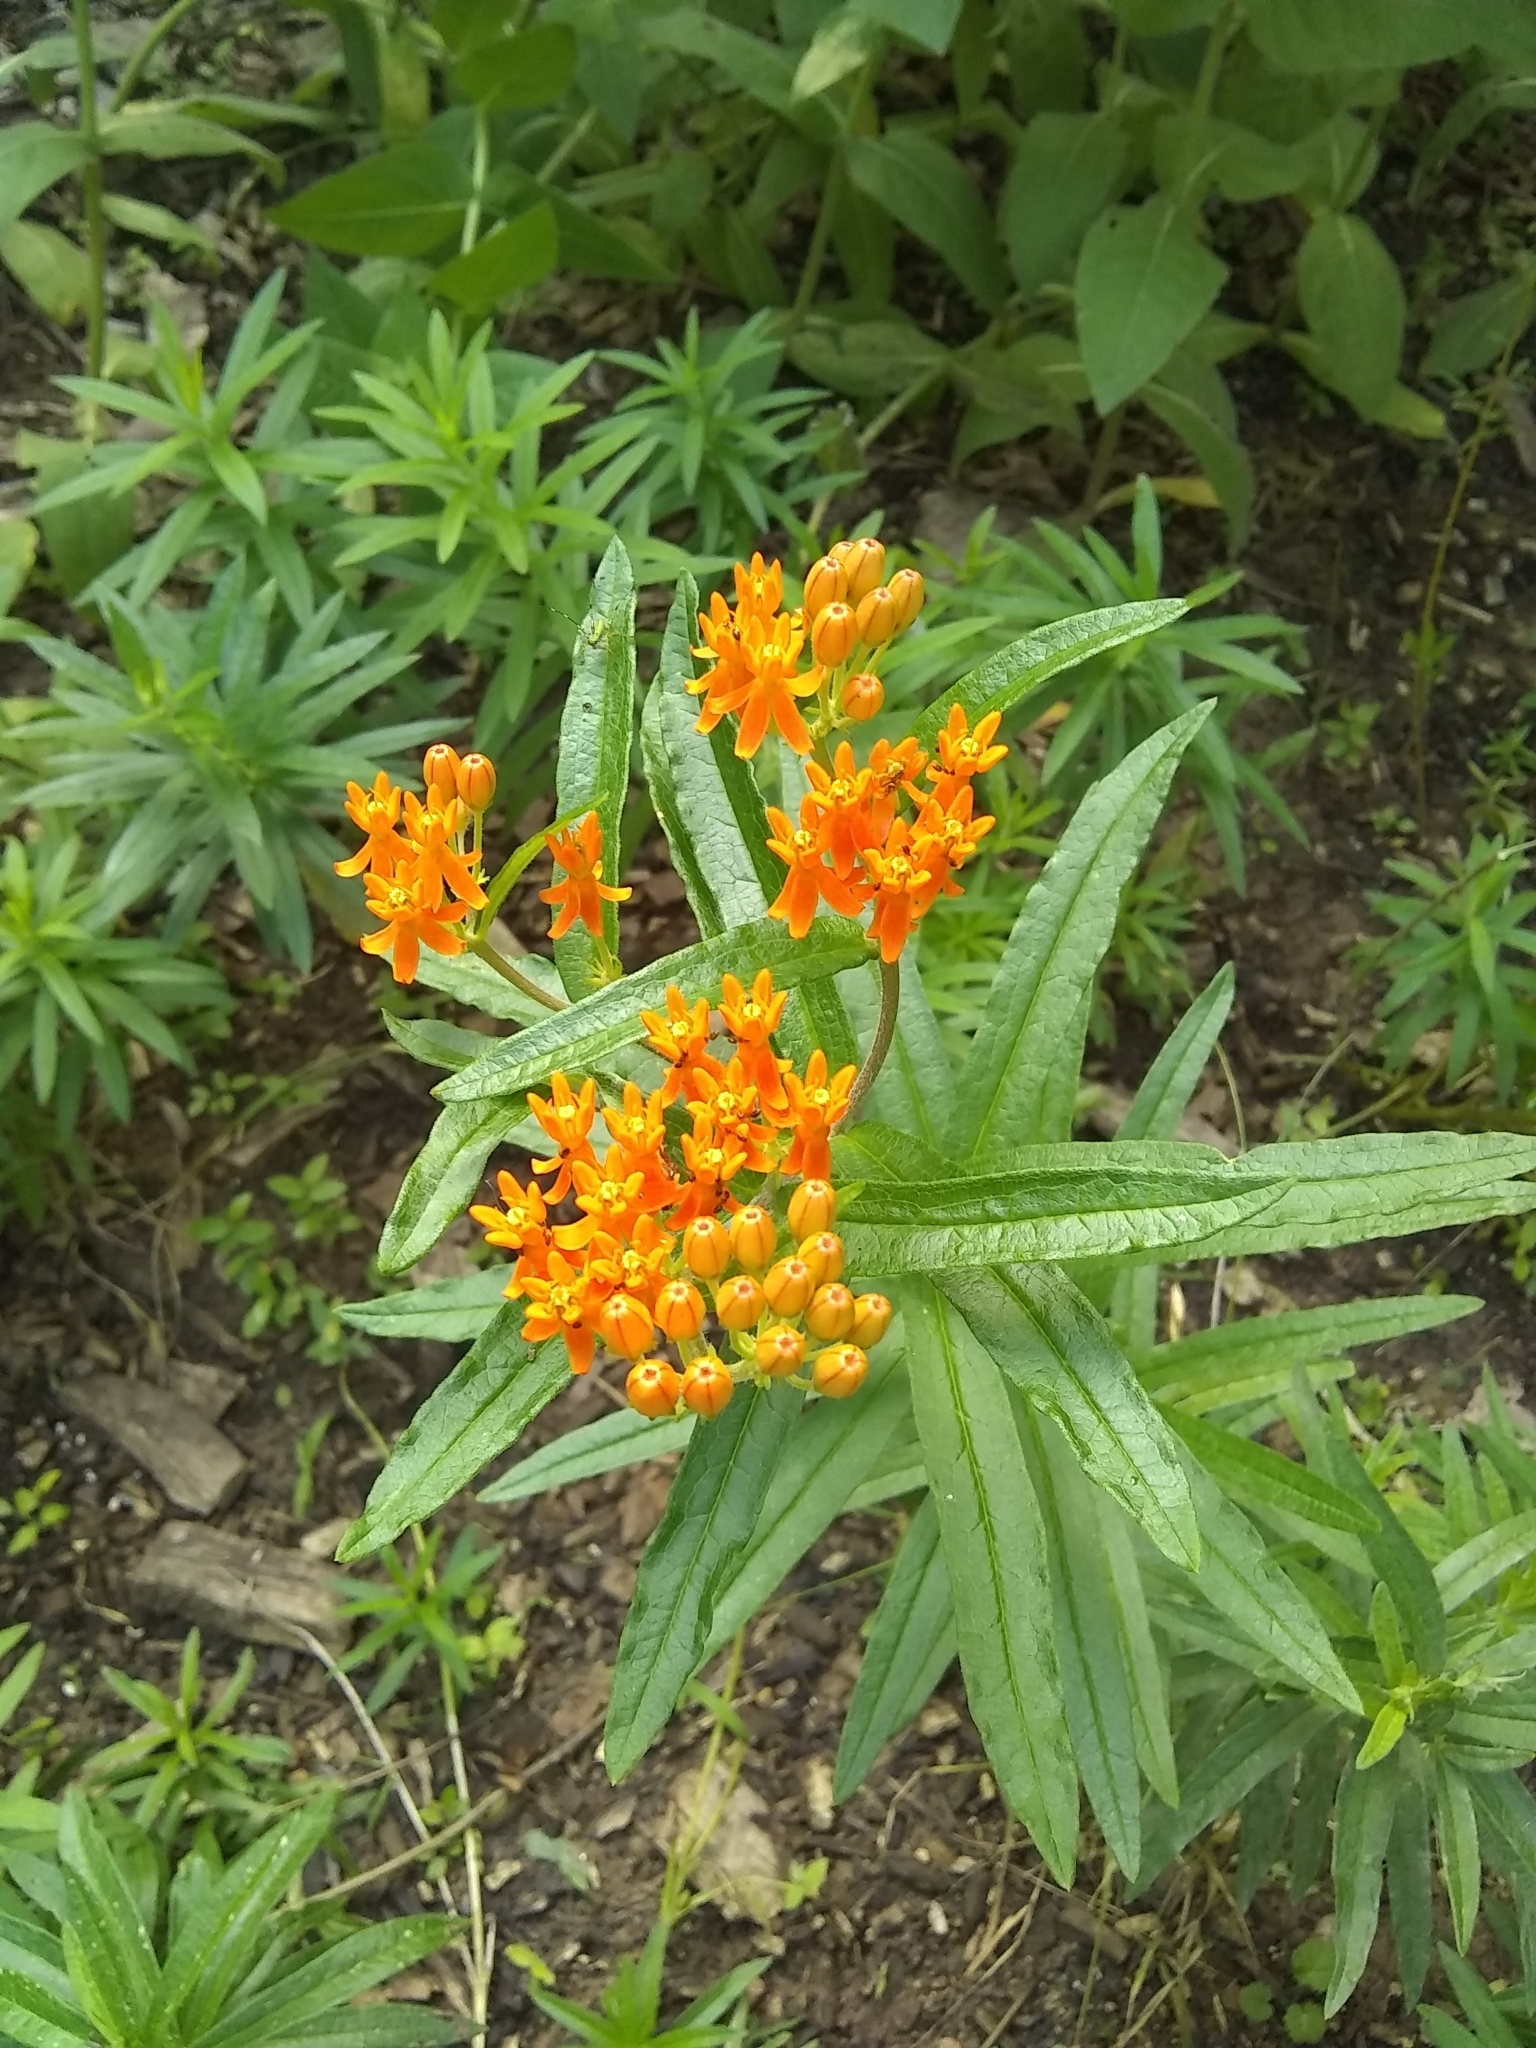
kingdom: Plantae
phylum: Tracheophyta
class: Magnoliopsida
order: Gentianales
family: Apocynaceae
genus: Asclepias
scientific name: Asclepias tuberosa
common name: Butterfly milkweed
